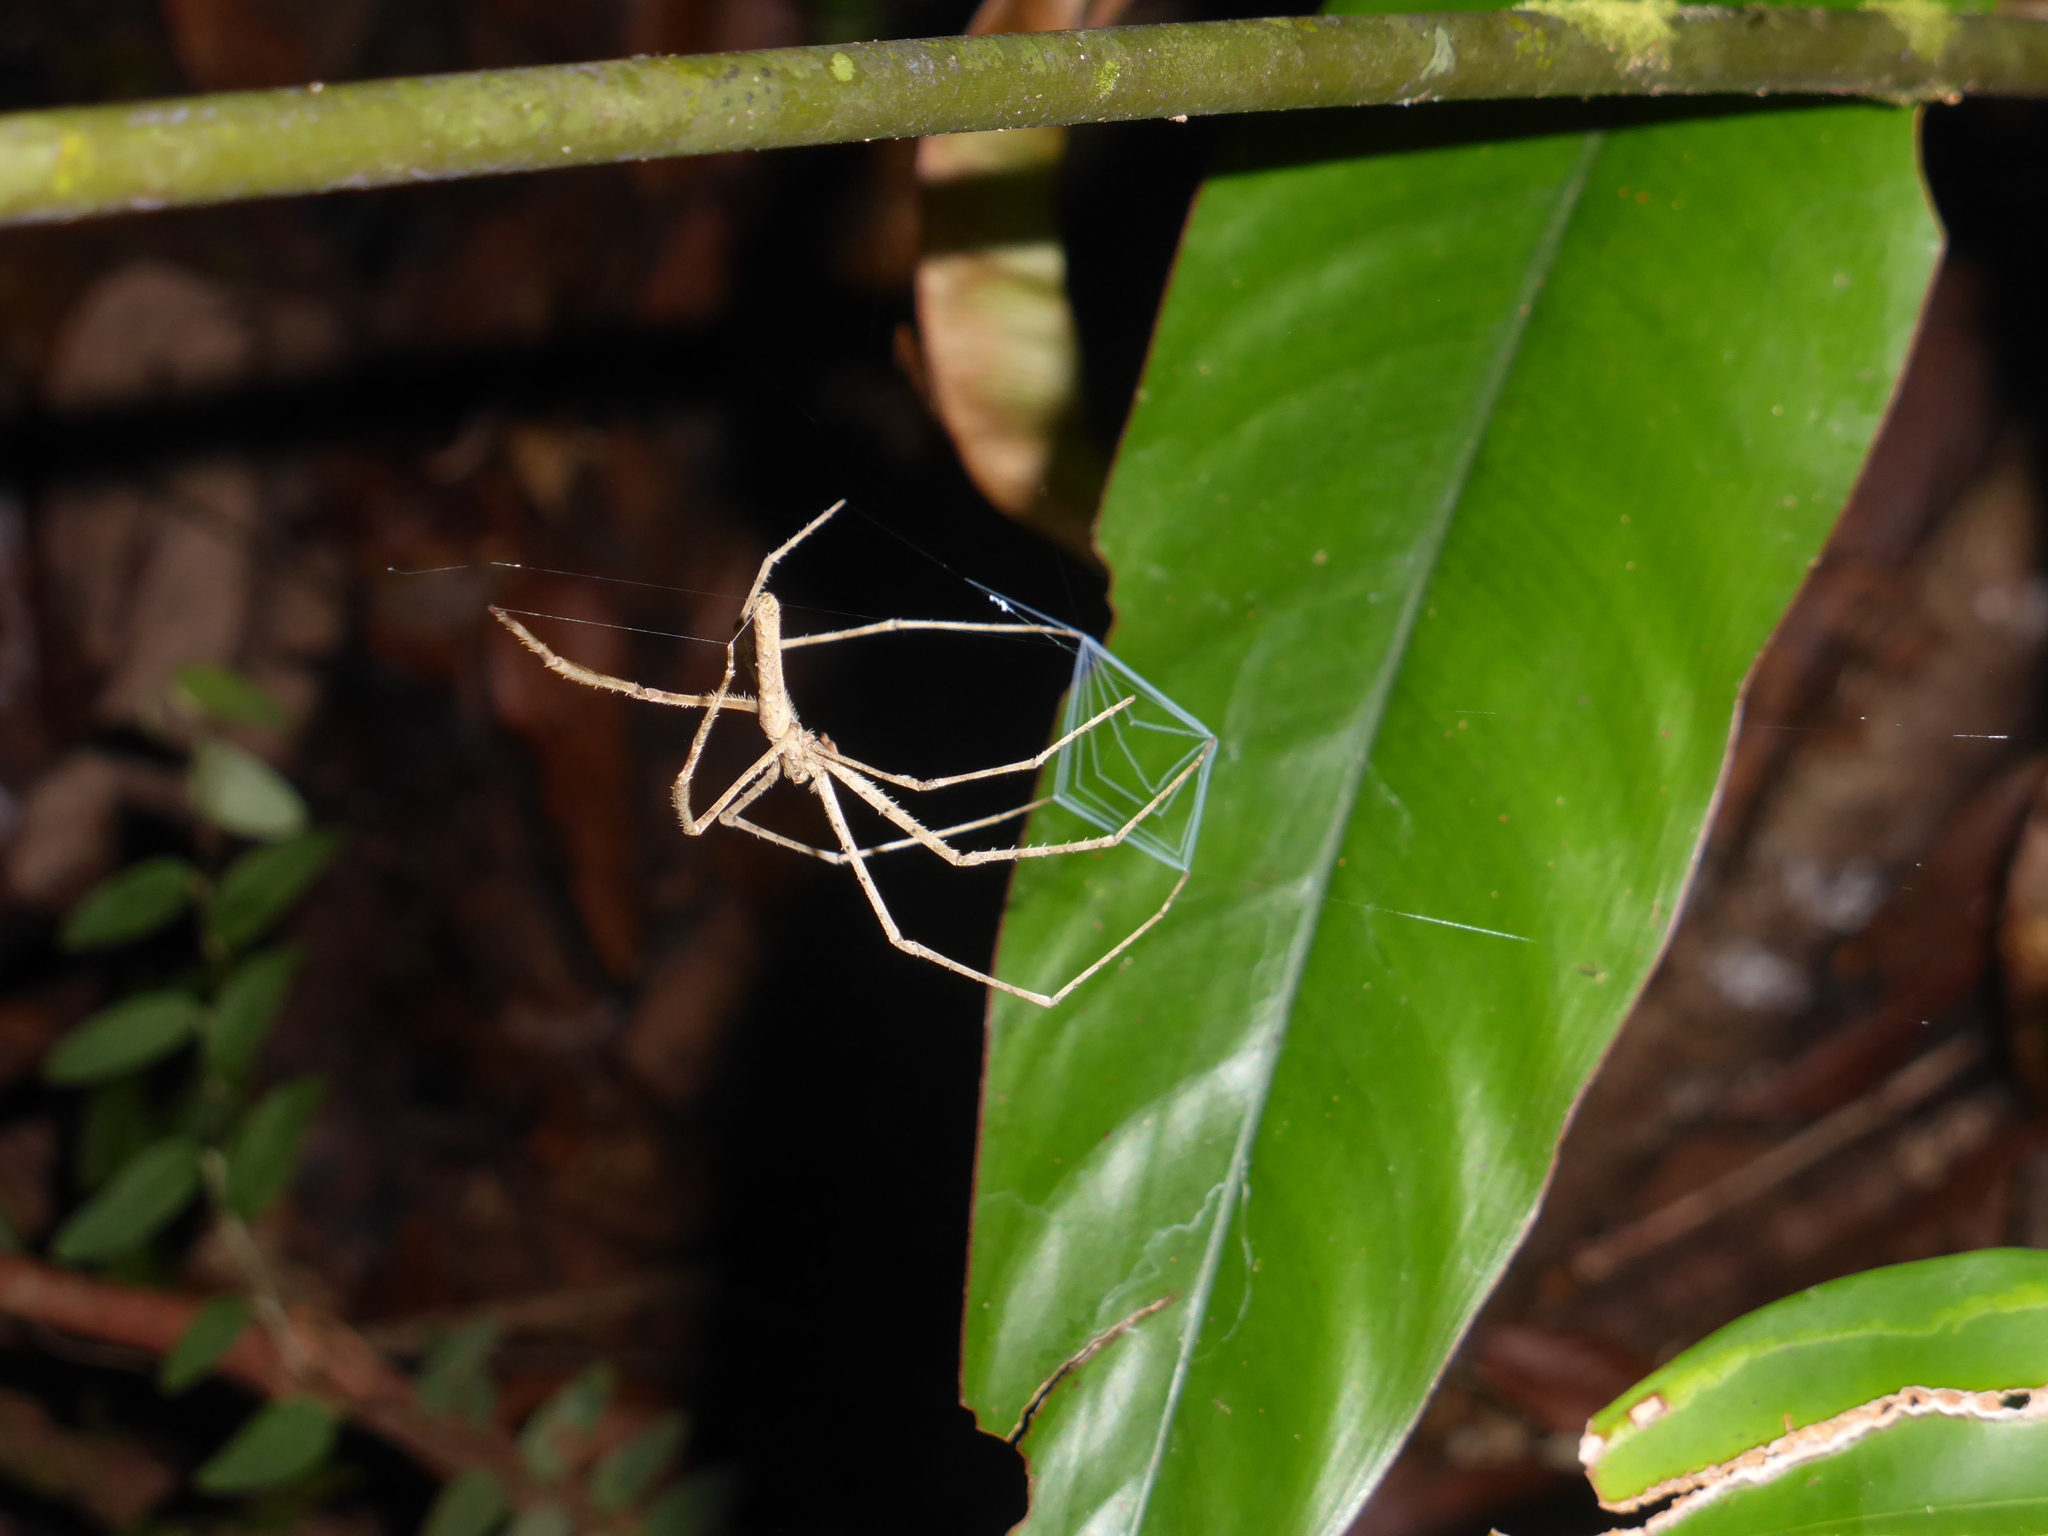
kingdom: Animalia
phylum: Arthropoda
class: Arachnida
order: Araneae
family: Deinopidae
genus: Deinopis
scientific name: Deinopis guianensis
